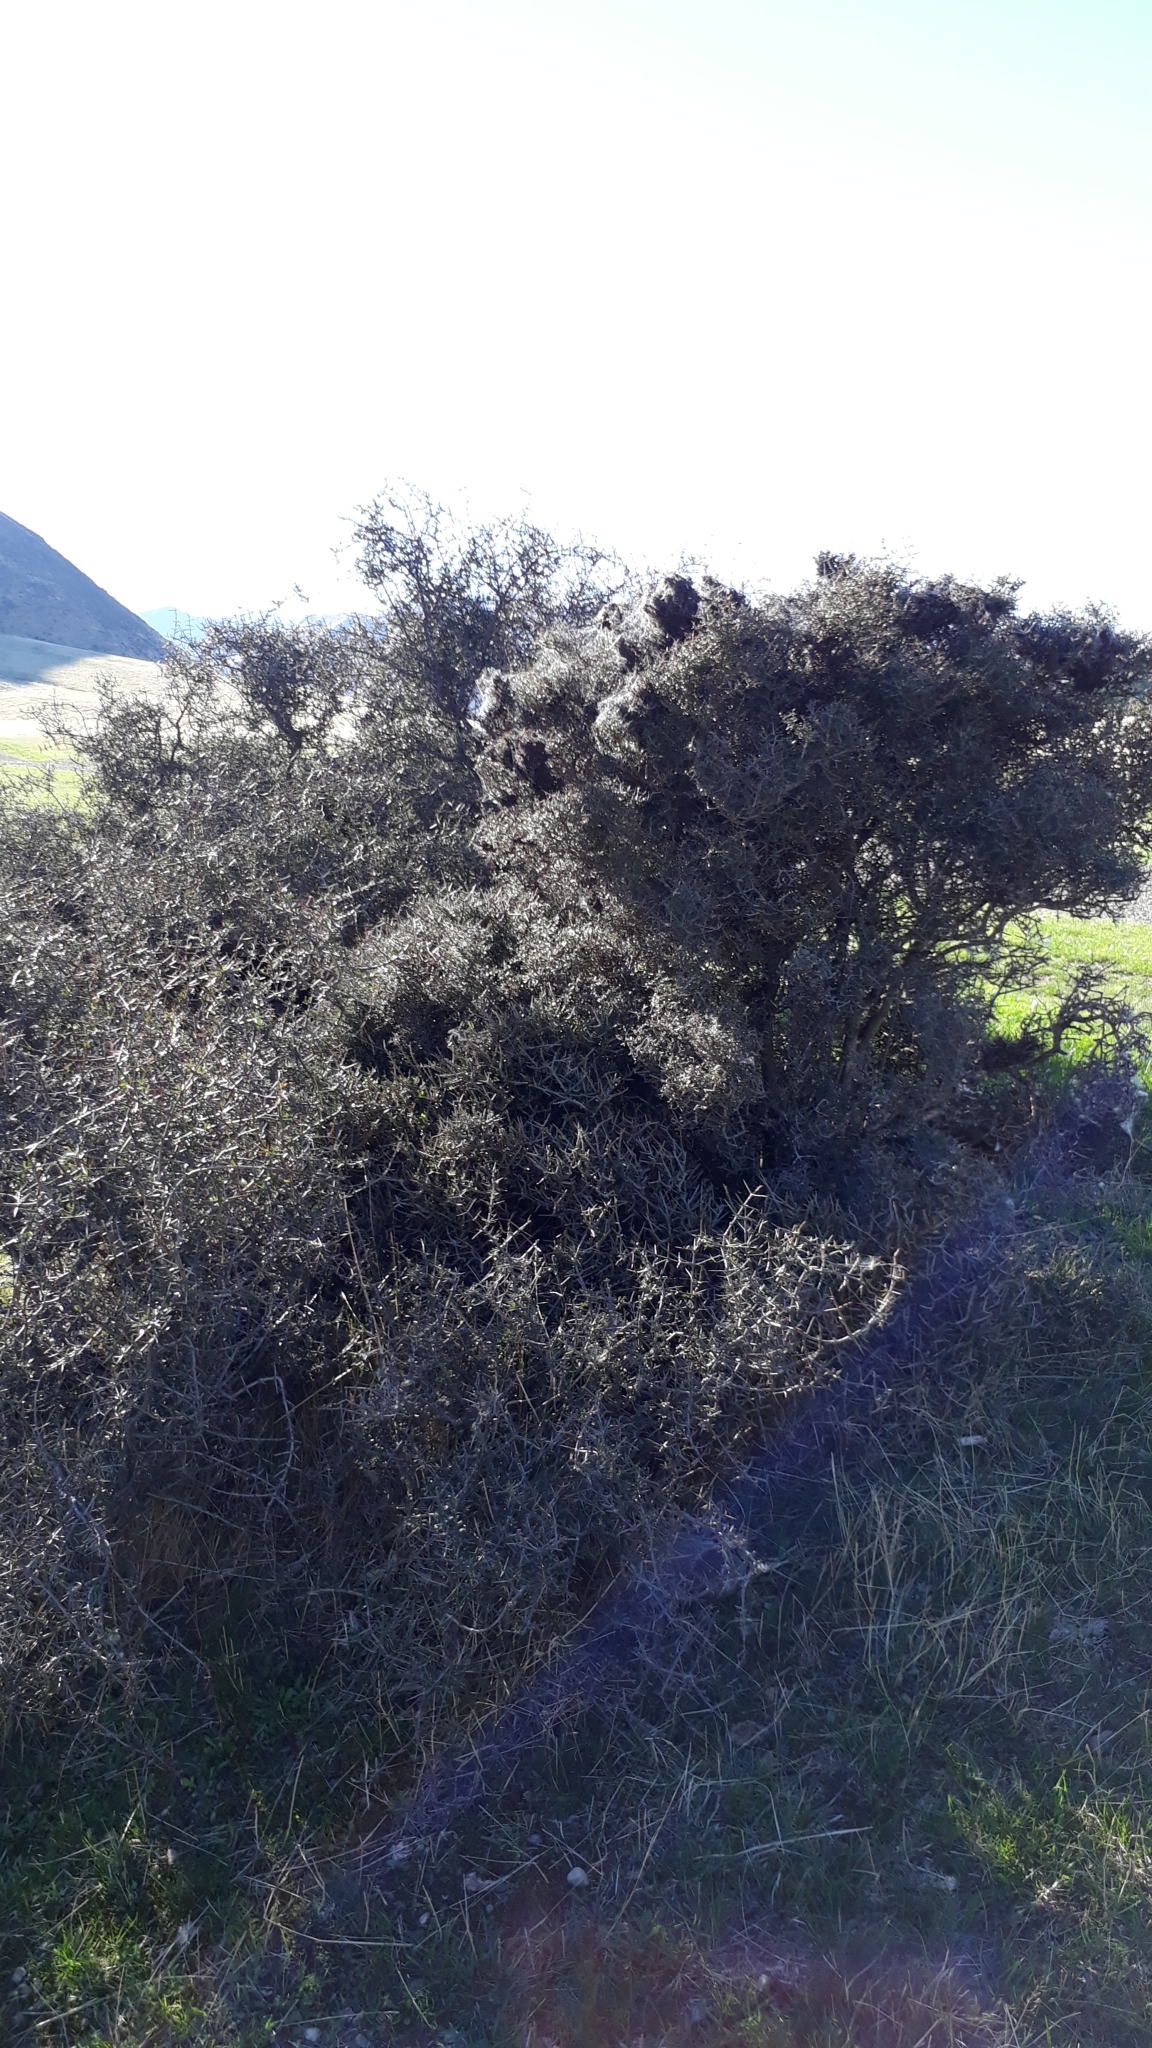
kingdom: Plantae
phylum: Tracheophyta
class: Magnoliopsida
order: Gentianales
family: Rubiaceae
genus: Coprosma
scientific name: Coprosma propinqua
